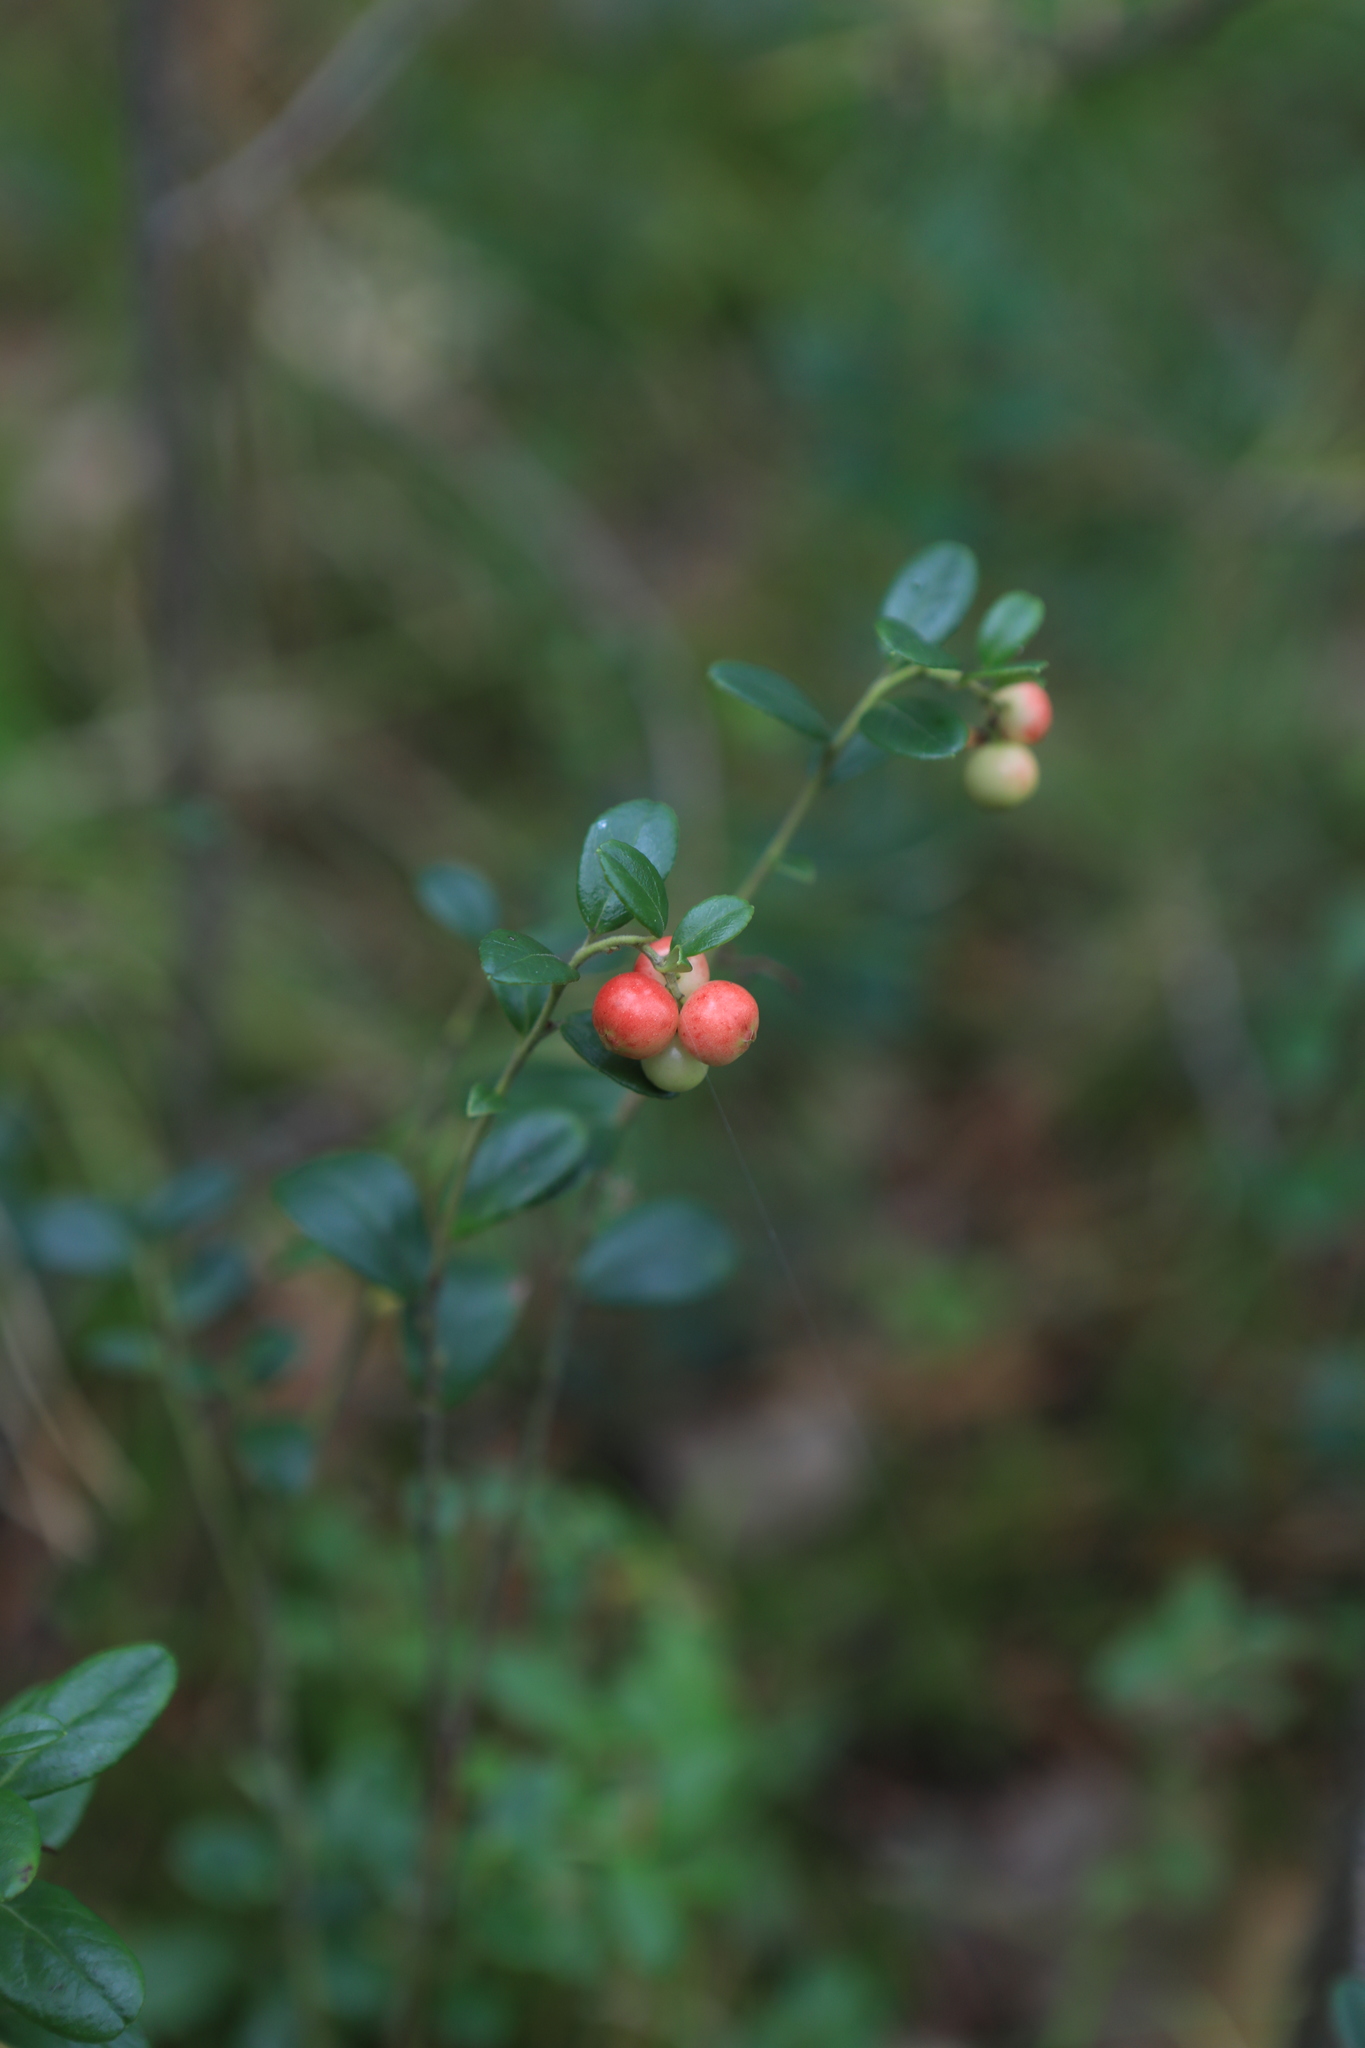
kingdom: Plantae
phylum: Tracheophyta
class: Magnoliopsida
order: Ericales
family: Ericaceae
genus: Vaccinium
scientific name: Vaccinium vitis-idaea
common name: Cowberry
